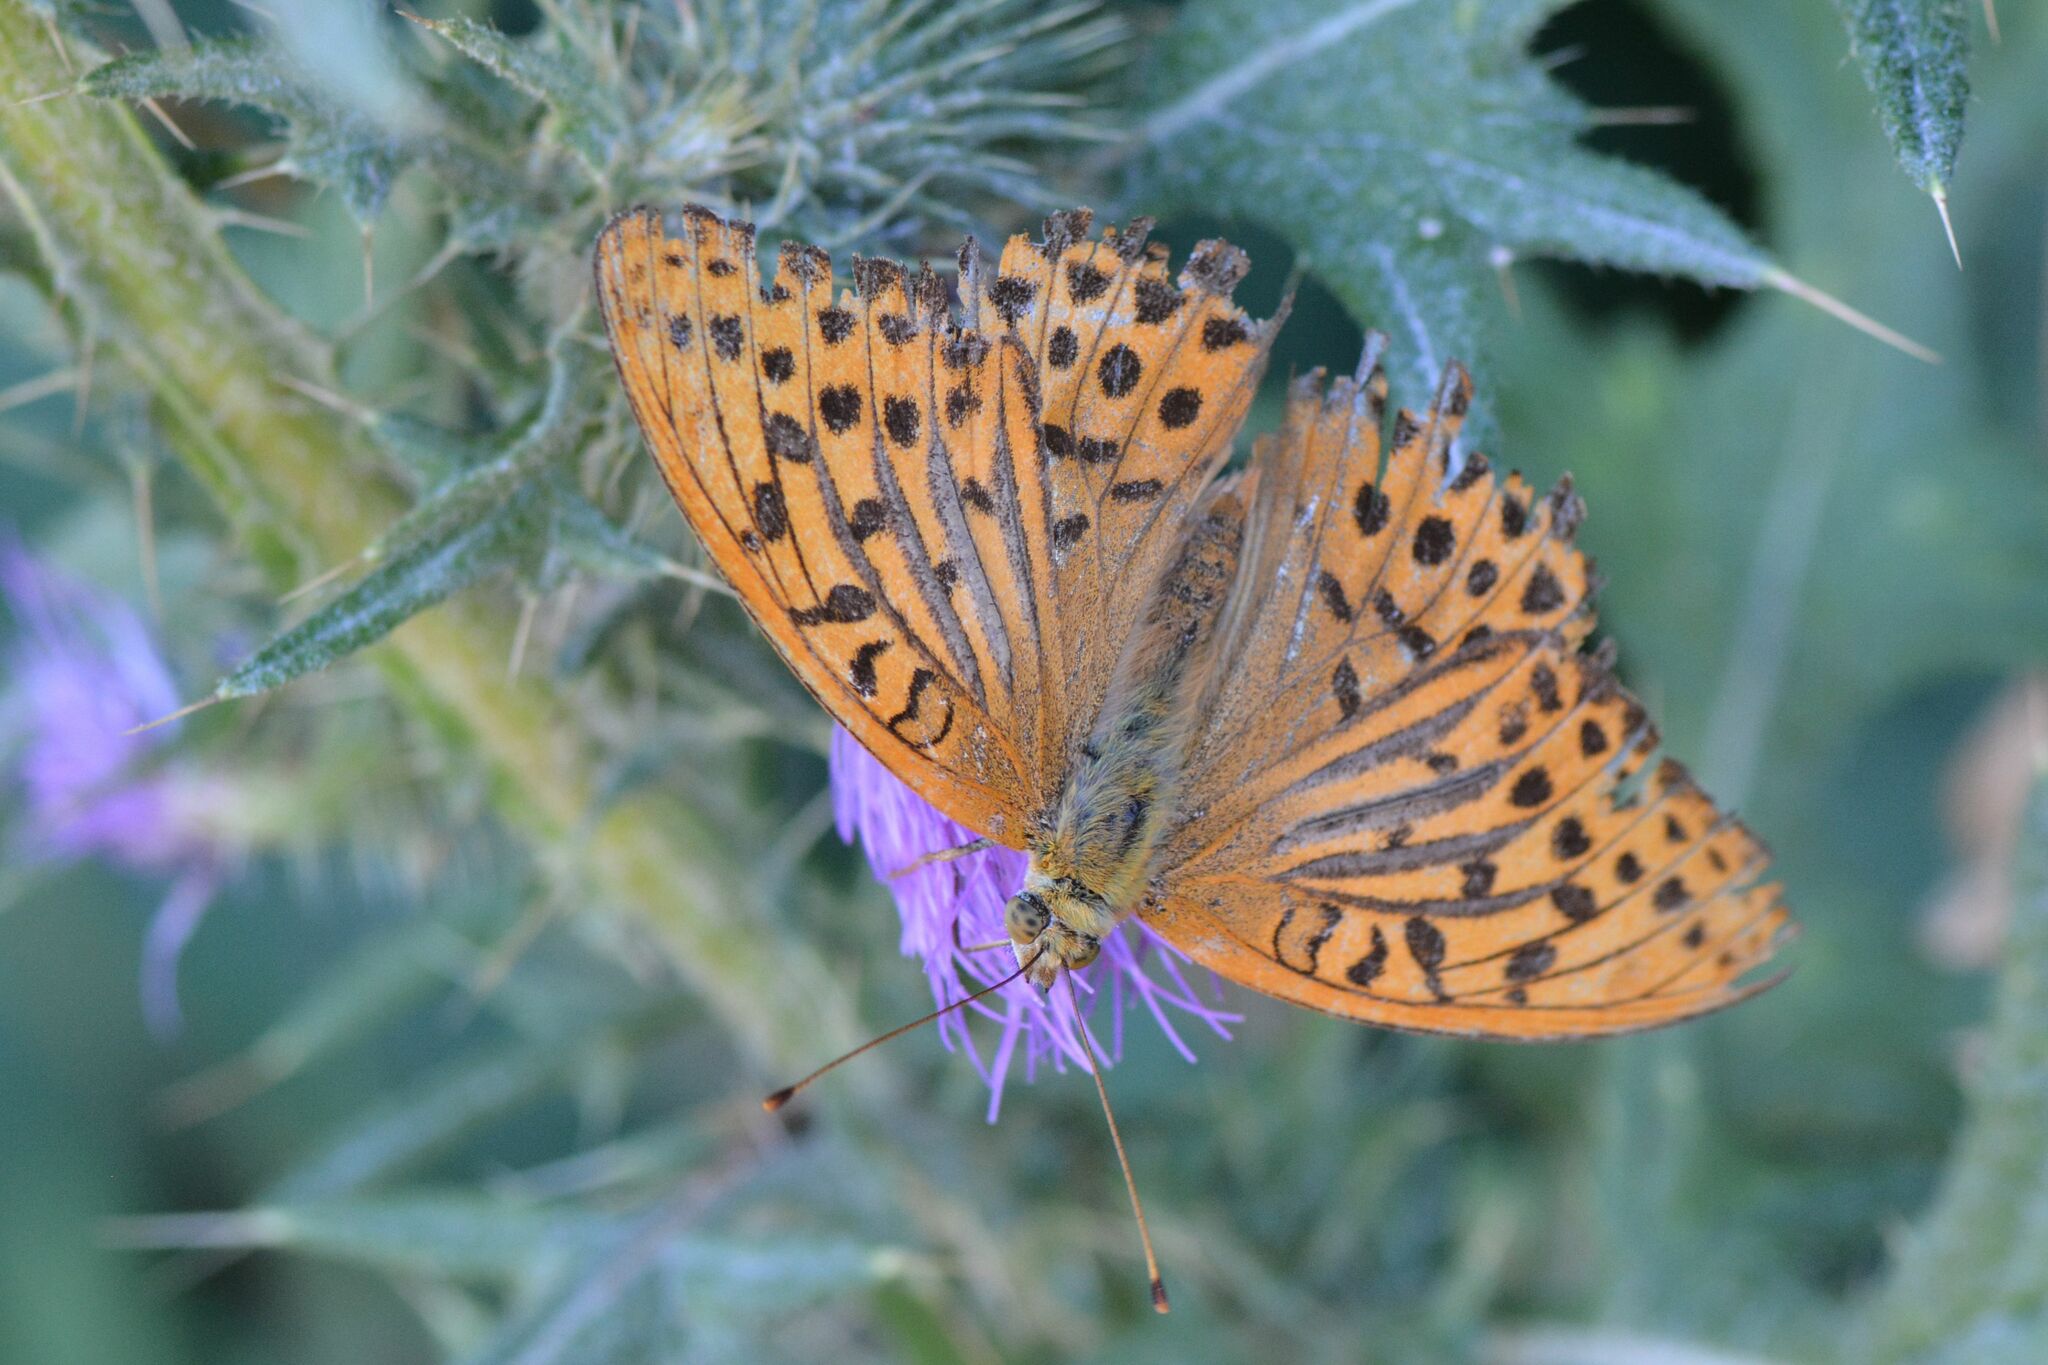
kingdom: Animalia
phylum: Arthropoda
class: Insecta
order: Lepidoptera
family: Nymphalidae
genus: Argynnis
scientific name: Argynnis paphia
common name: Silver-washed fritillary
